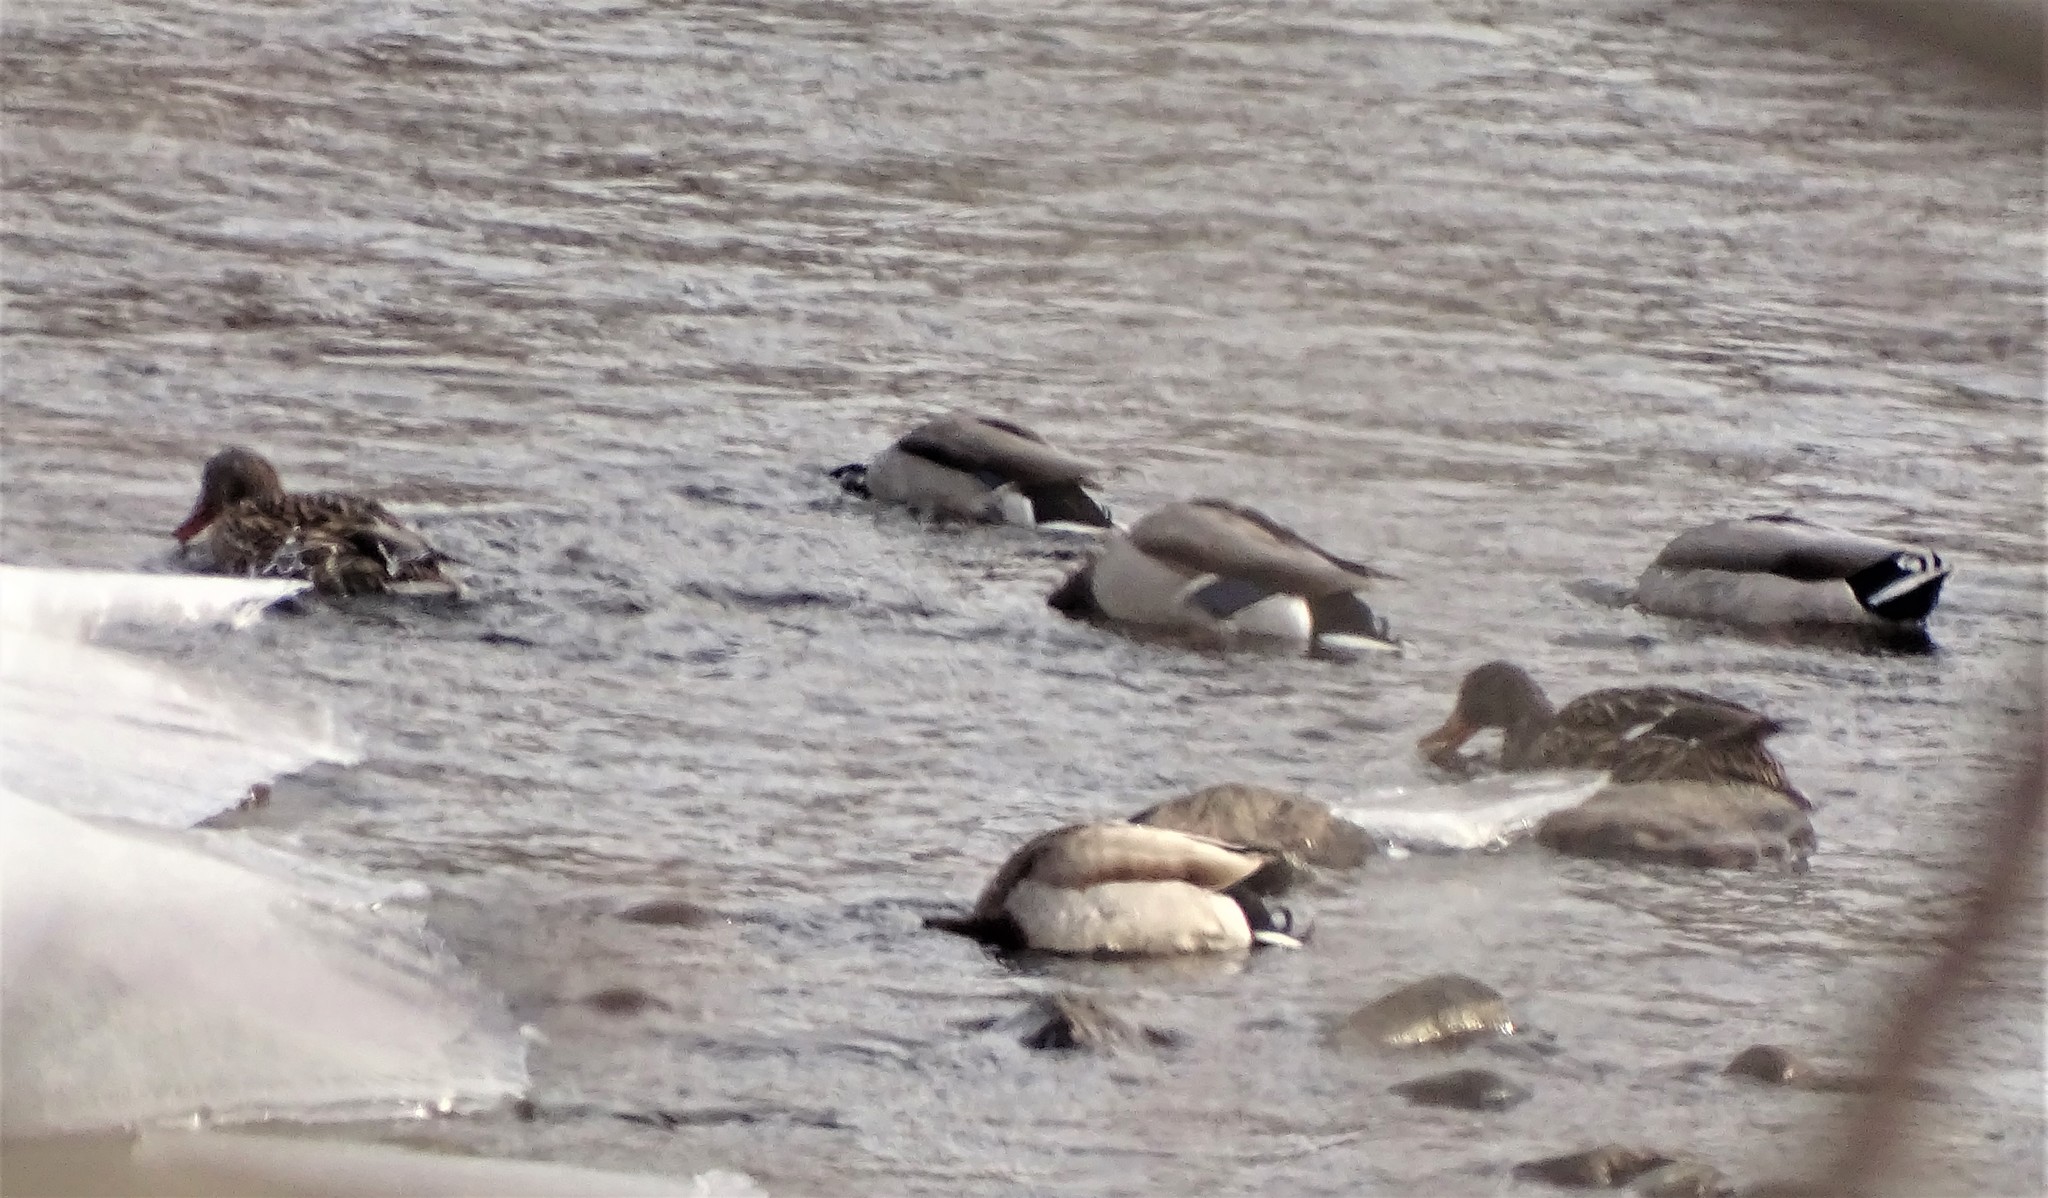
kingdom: Animalia
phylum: Chordata
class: Aves
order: Anseriformes
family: Anatidae
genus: Anas
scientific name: Anas platyrhynchos
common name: Mallard
